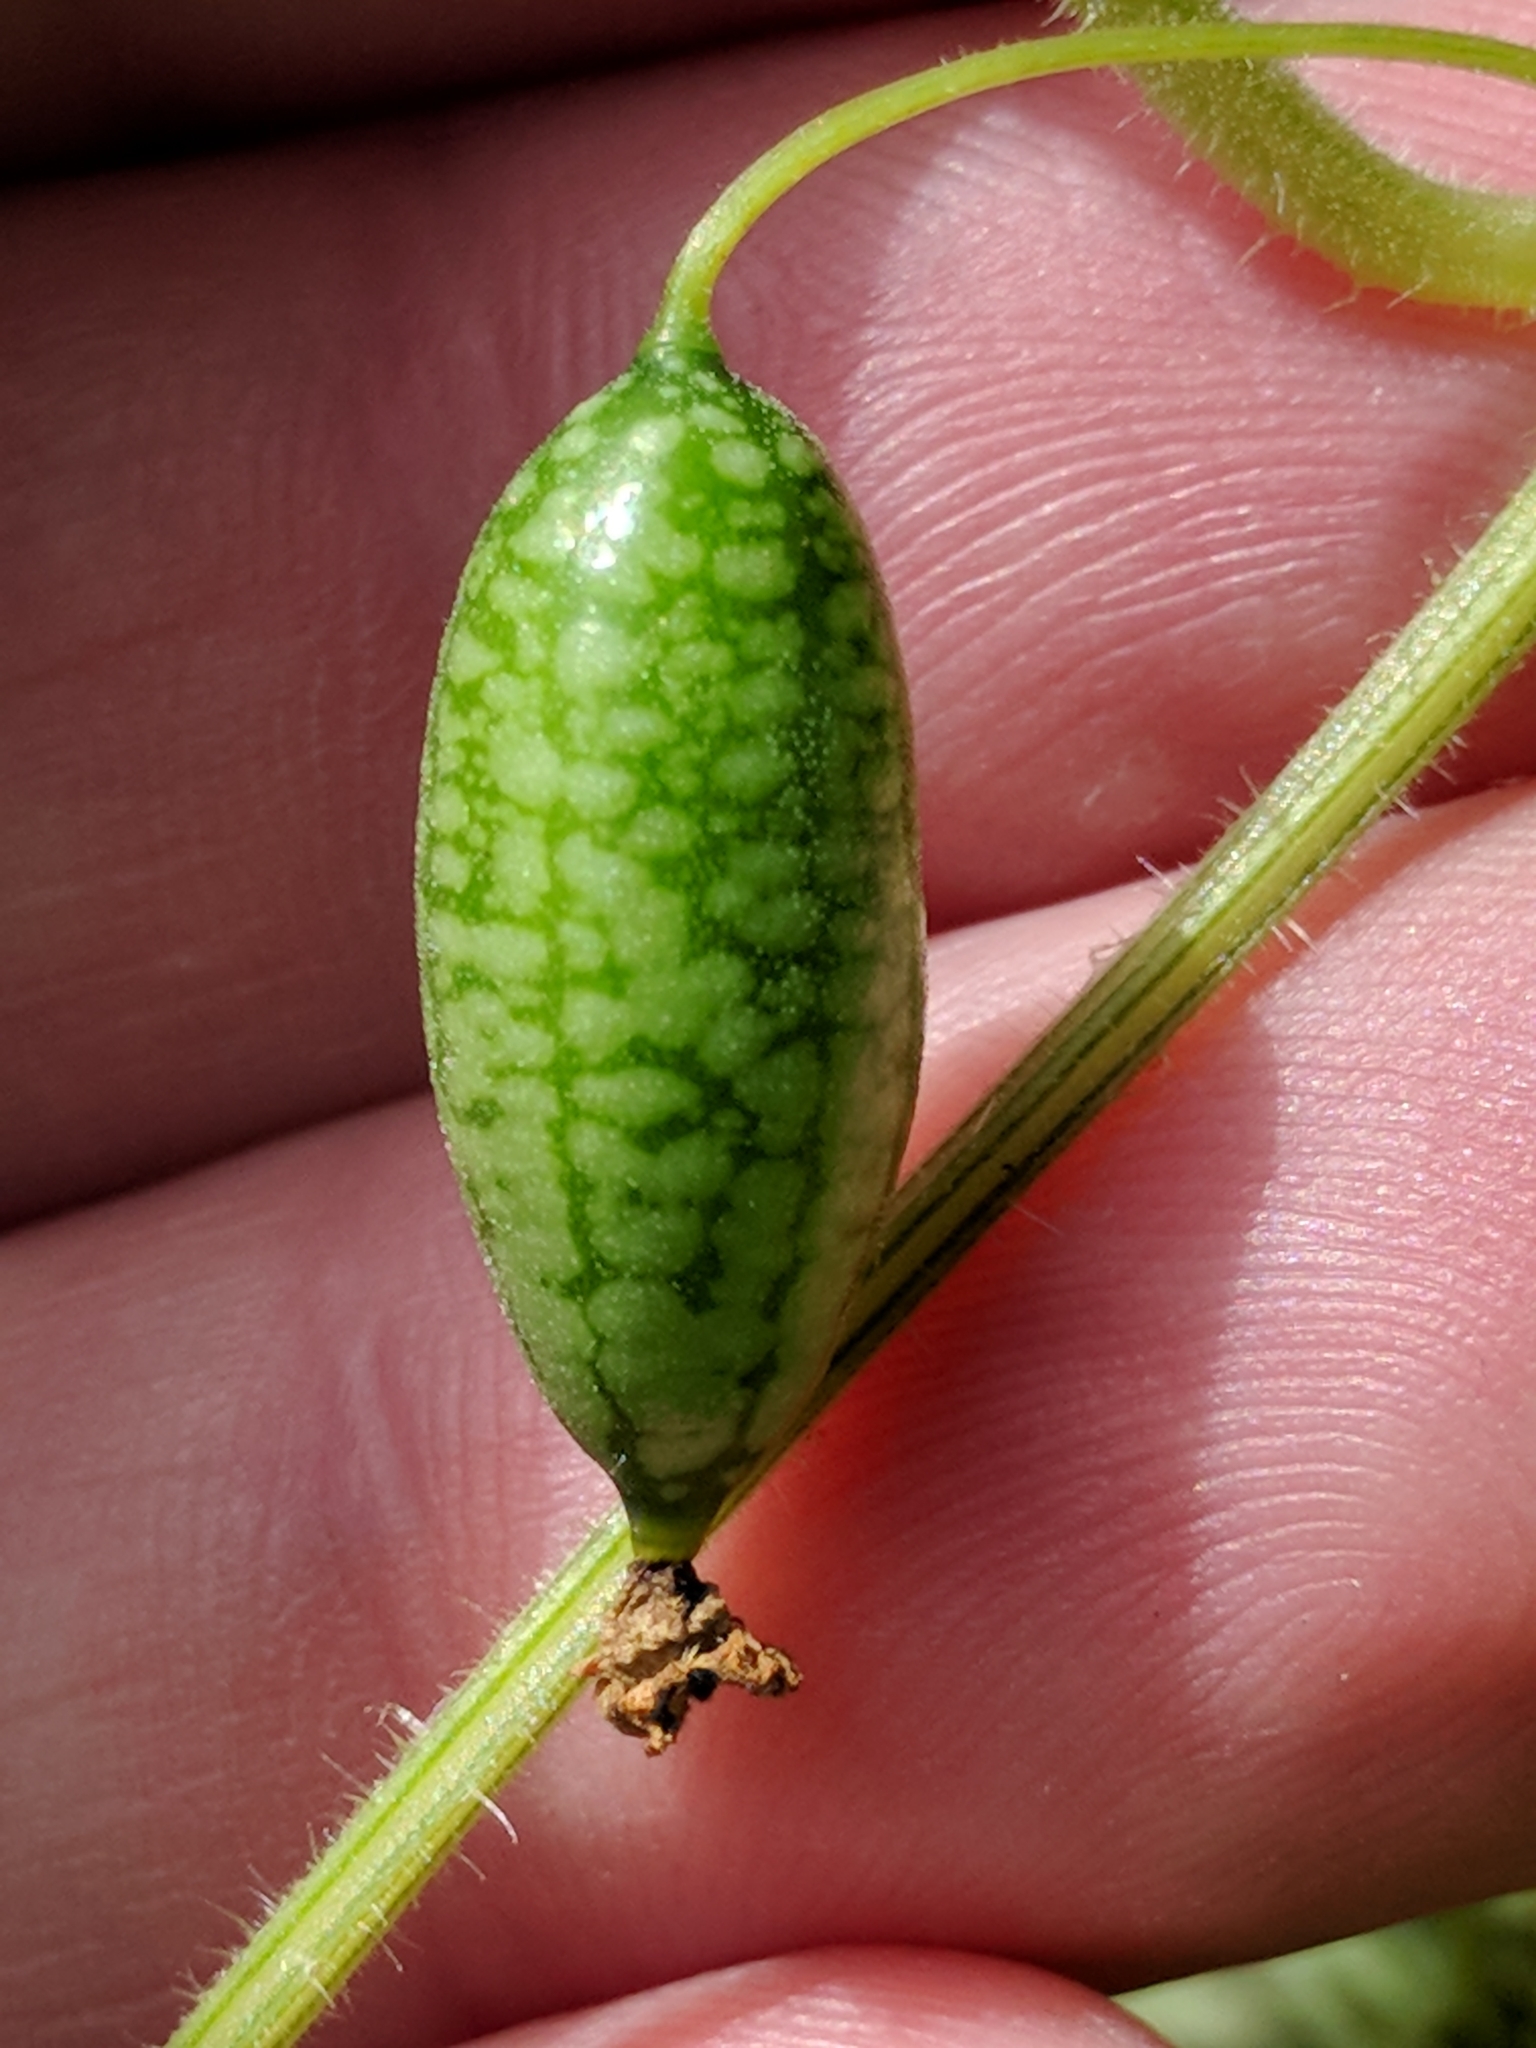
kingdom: Plantae
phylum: Tracheophyta
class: Magnoliopsida
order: Cucurbitales
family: Cucurbitaceae
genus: Melothria
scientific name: Melothria scabra
